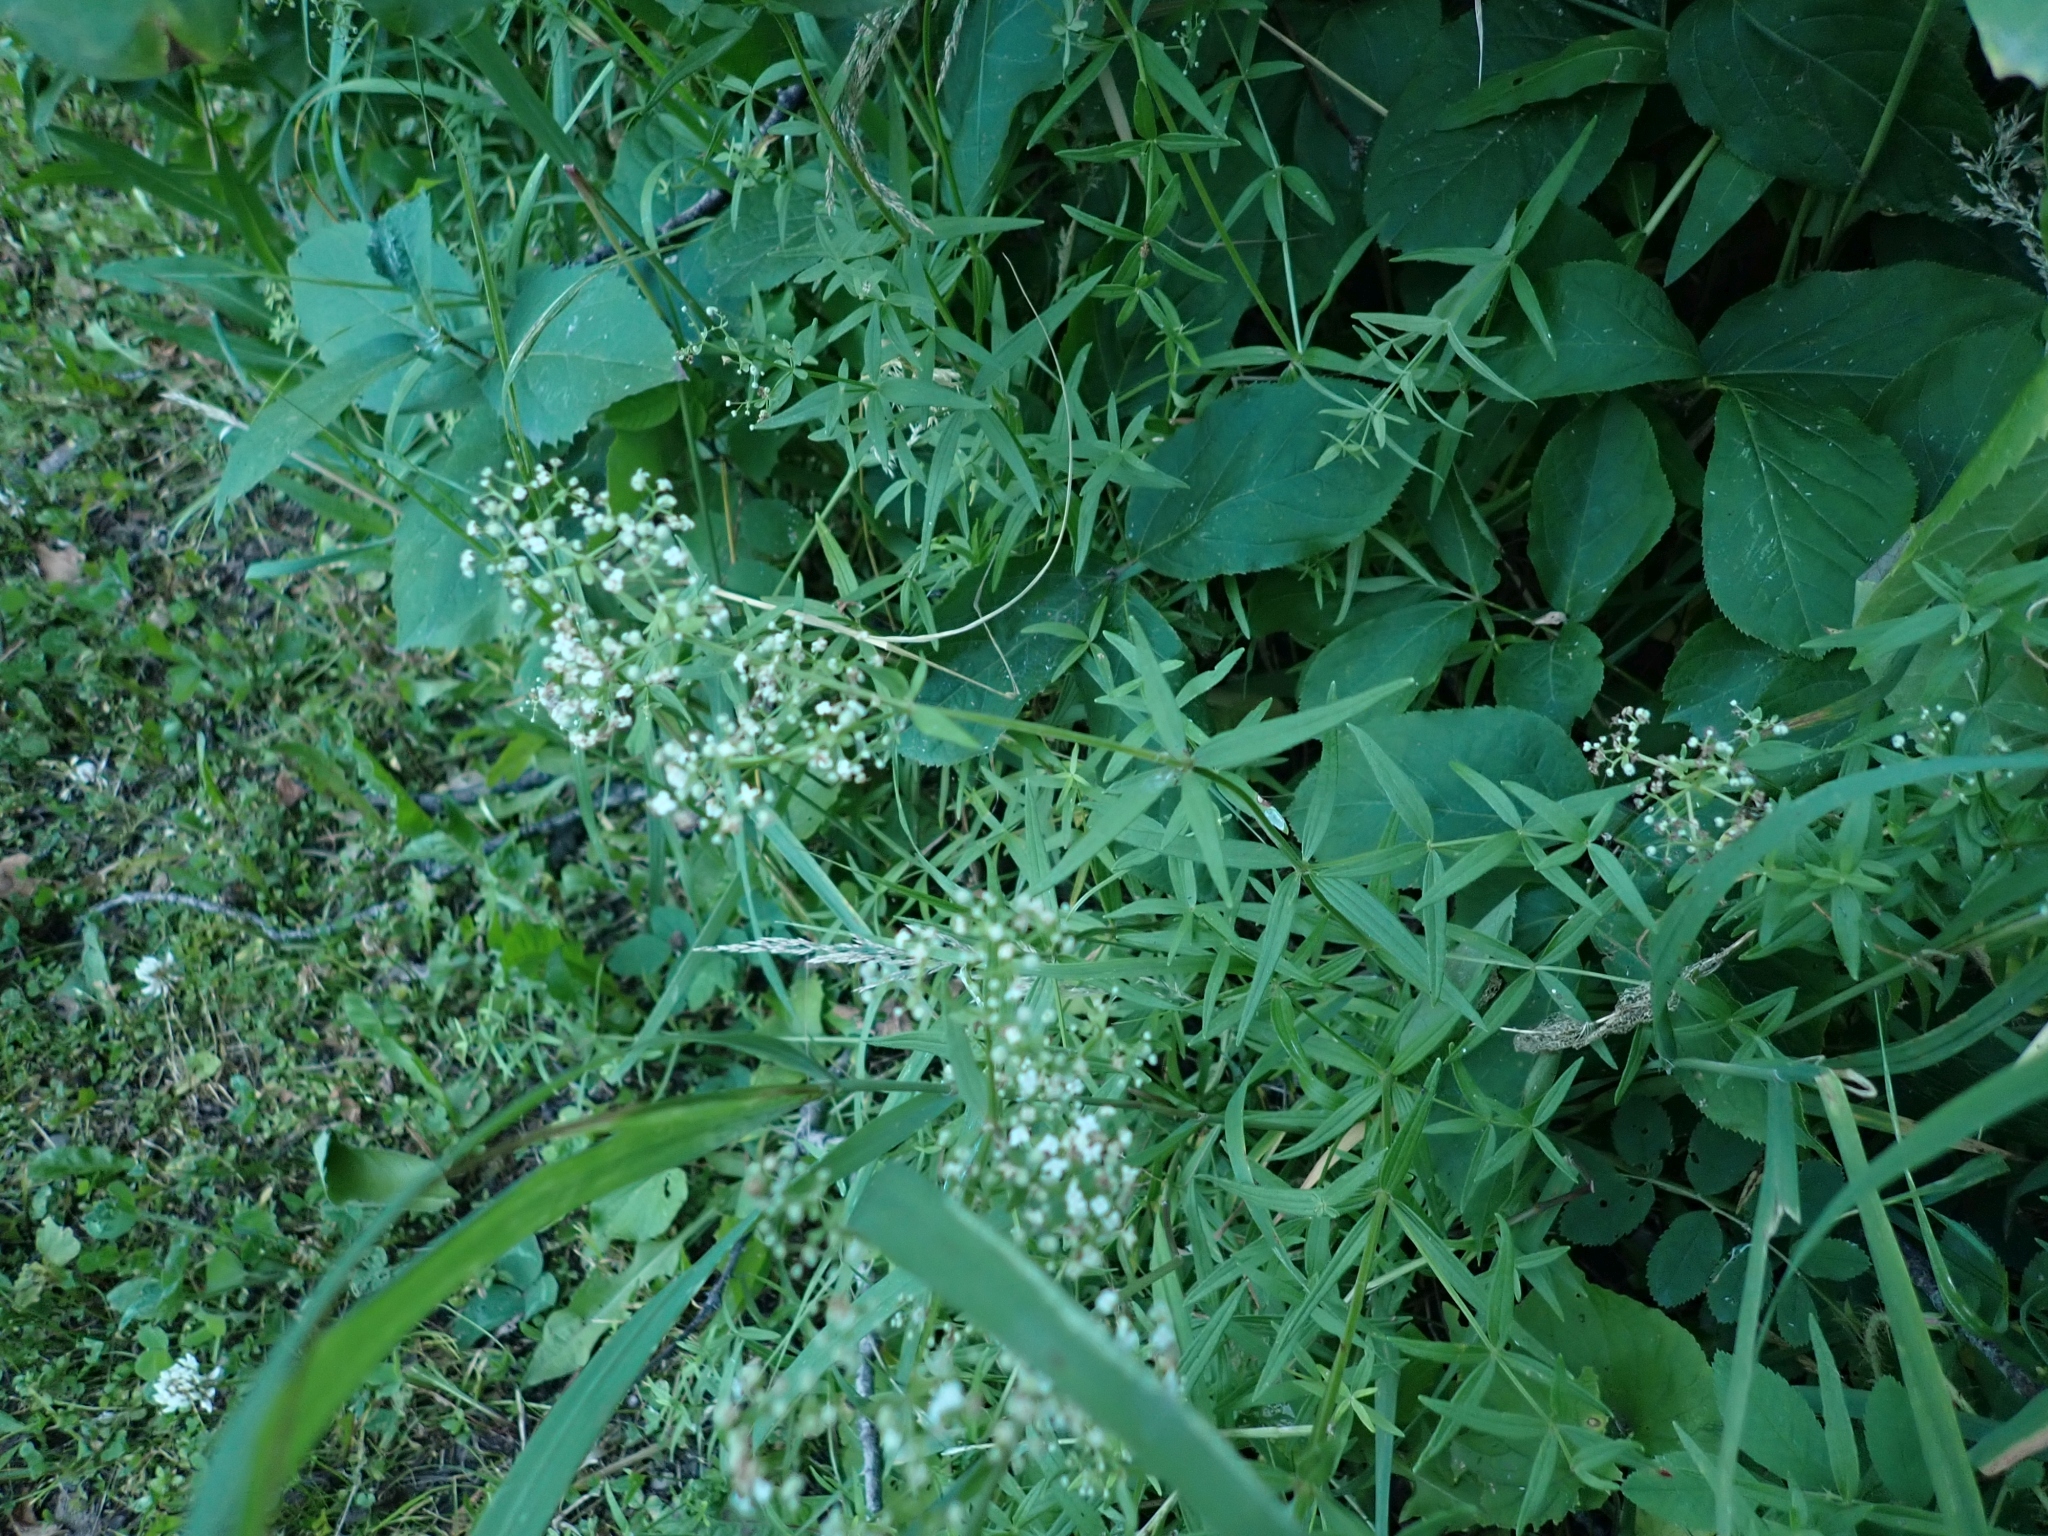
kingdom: Plantae
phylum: Tracheophyta
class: Magnoliopsida
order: Gentianales
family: Rubiaceae
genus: Galium
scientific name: Galium boreale
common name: Northern bedstraw
